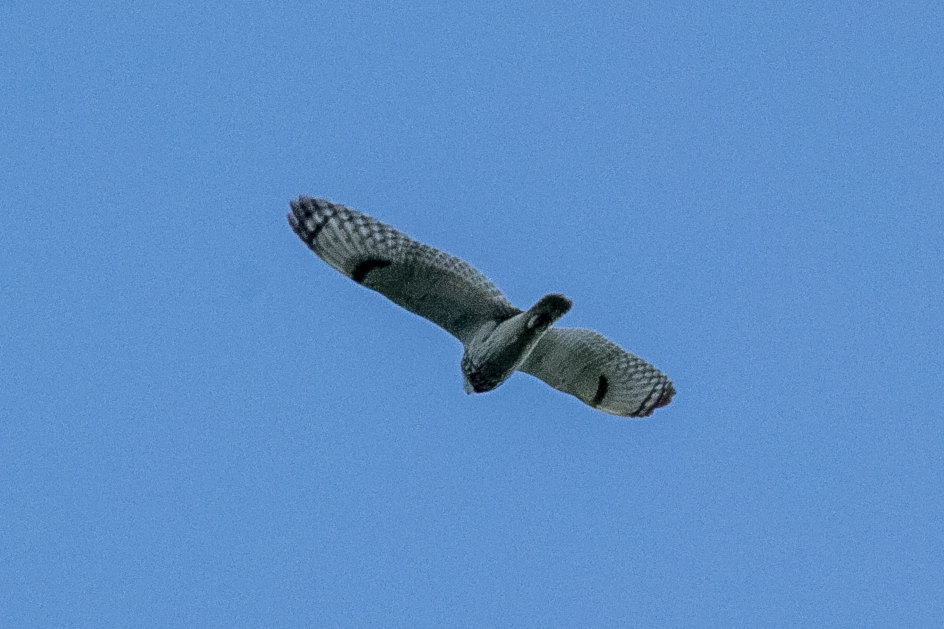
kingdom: Animalia
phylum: Chordata
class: Aves
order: Strigiformes
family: Strigidae
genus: Asio
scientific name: Asio flammeus
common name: Short-eared owl
